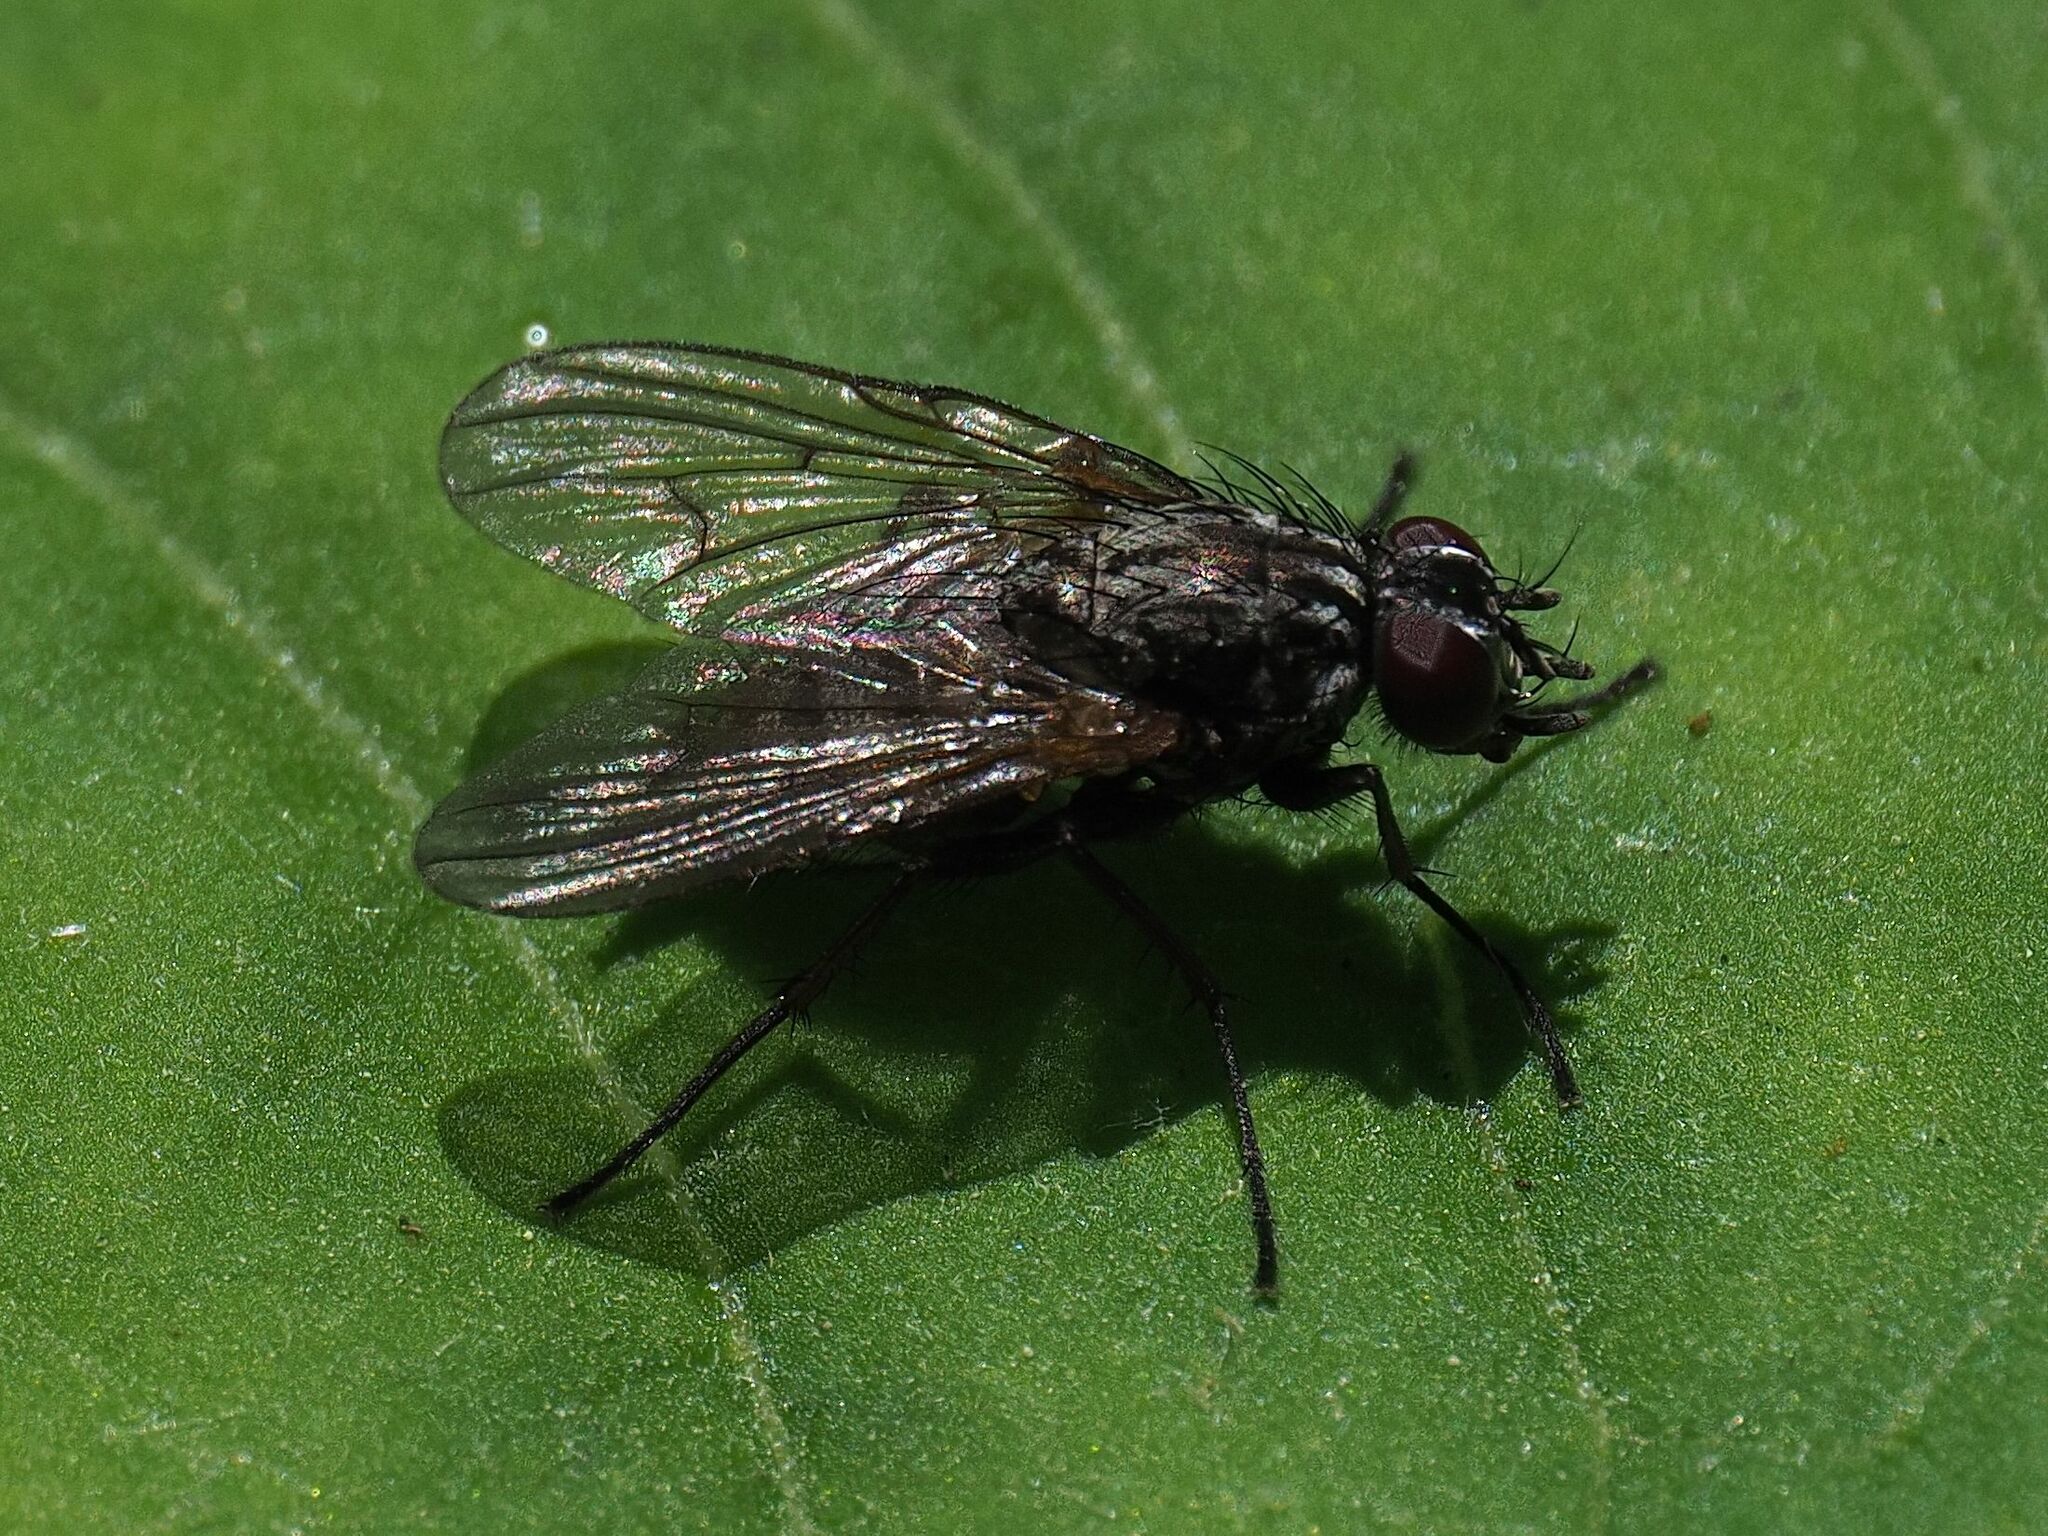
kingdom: Animalia
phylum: Arthropoda
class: Insecta
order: Diptera
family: Muscidae
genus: Phaonia
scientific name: Phaonia palpata
